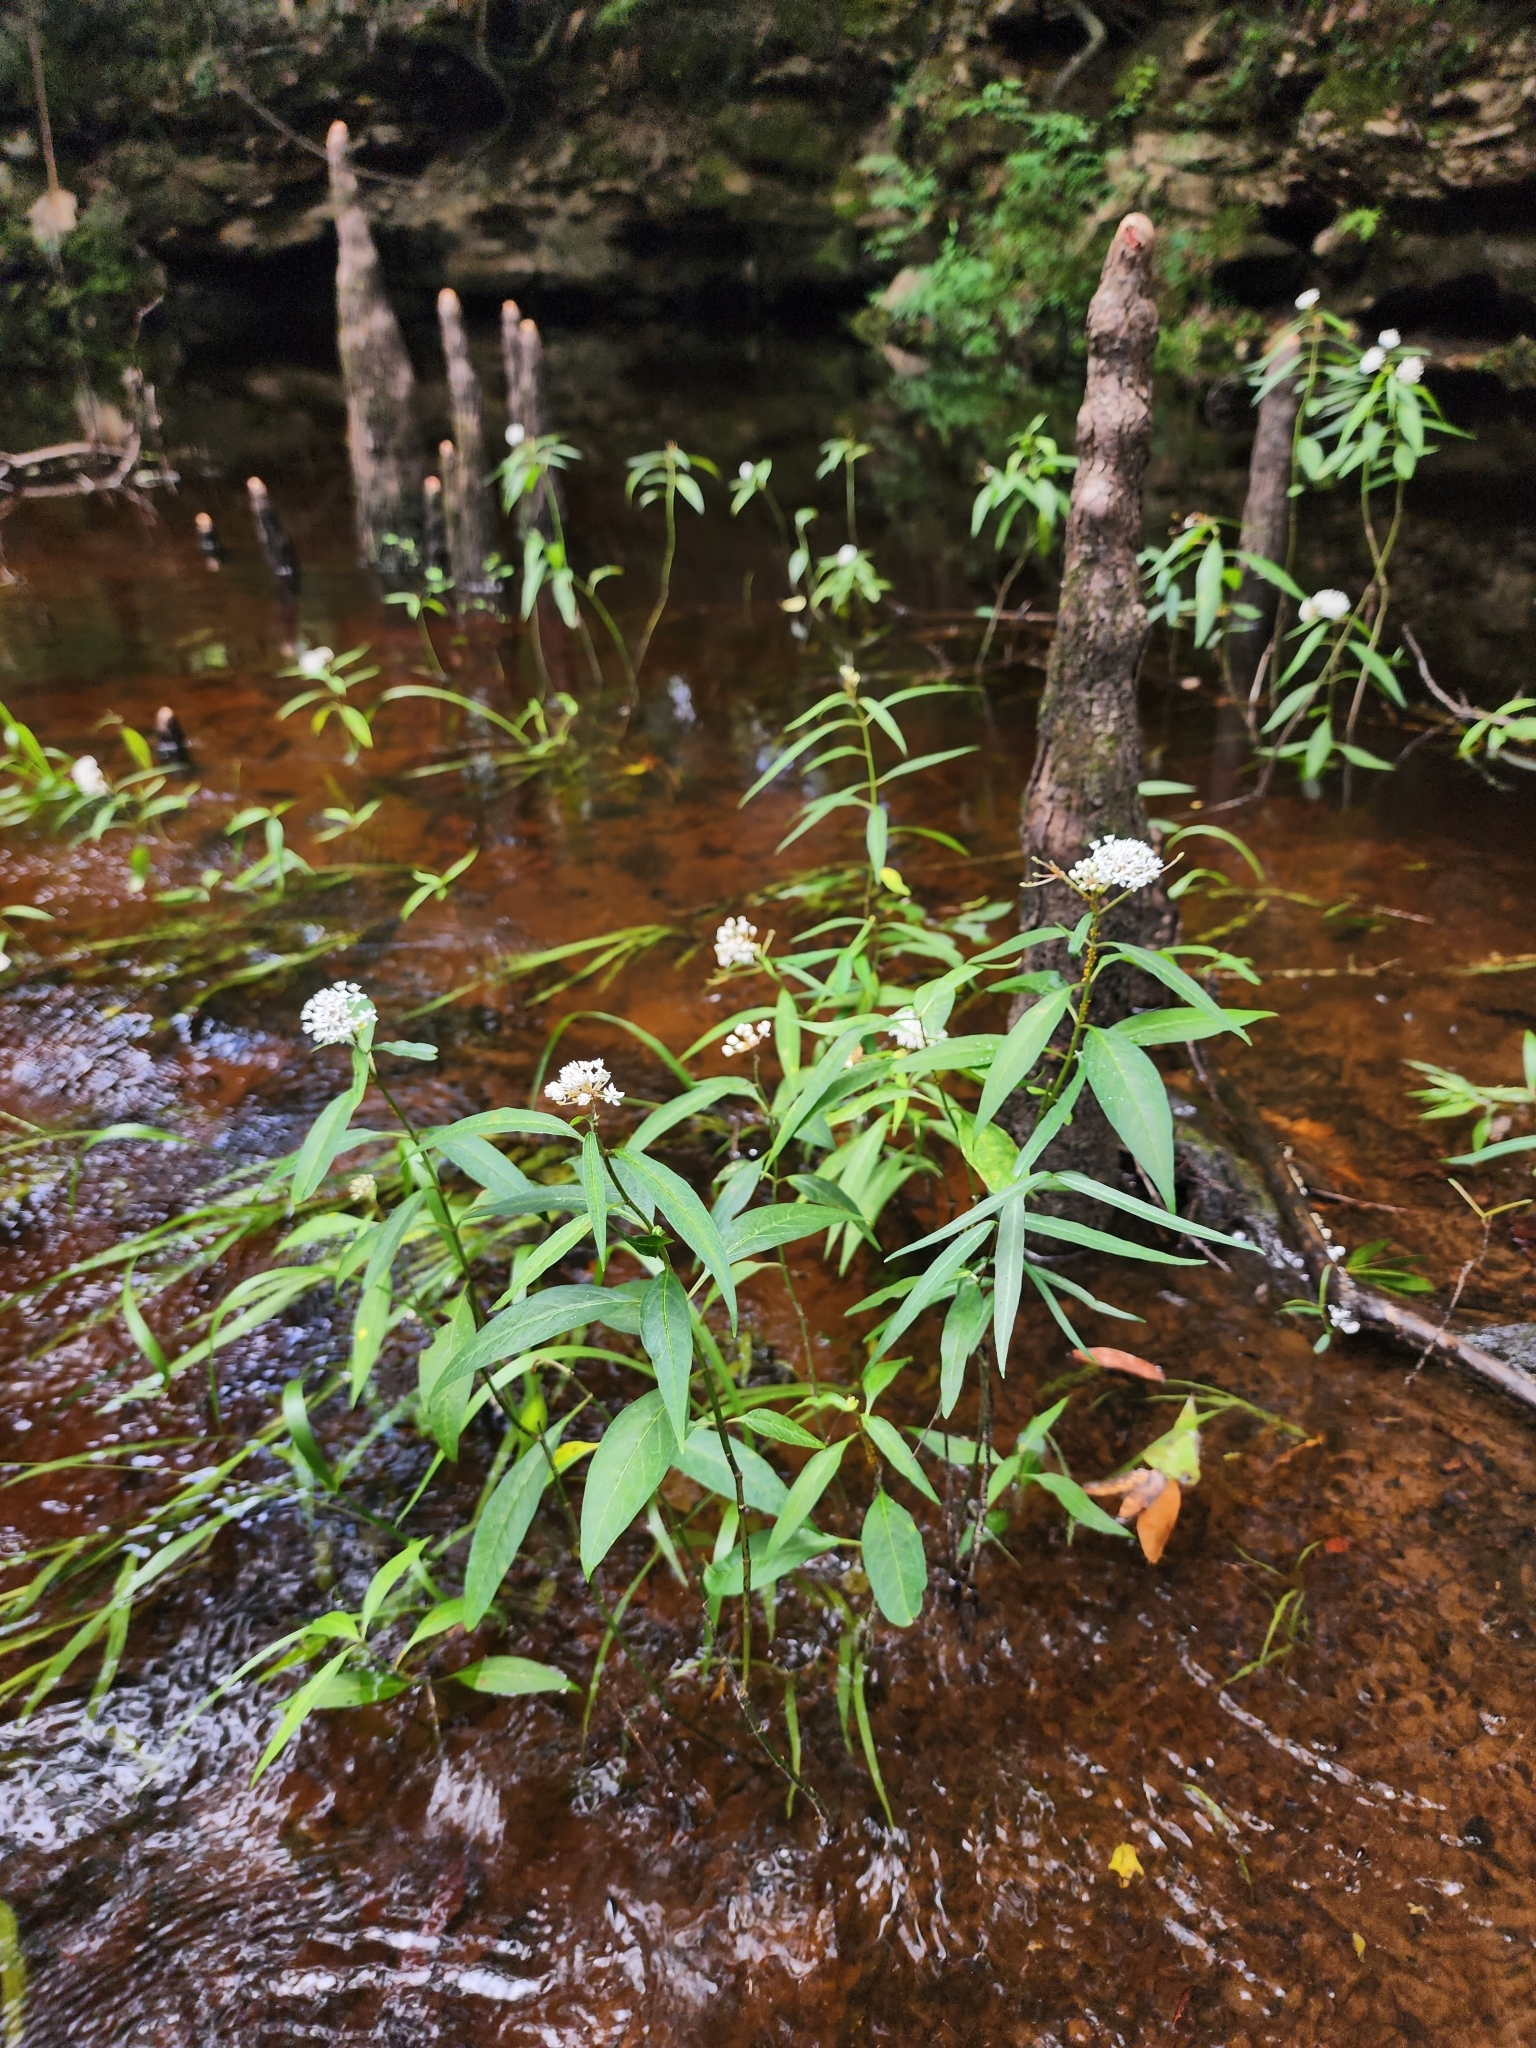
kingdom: Plantae
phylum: Tracheophyta
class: Magnoliopsida
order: Gentianales
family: Apocynaceae
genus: Asclepias
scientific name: Asclepias perennis
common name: Smooth-seed milkweed
